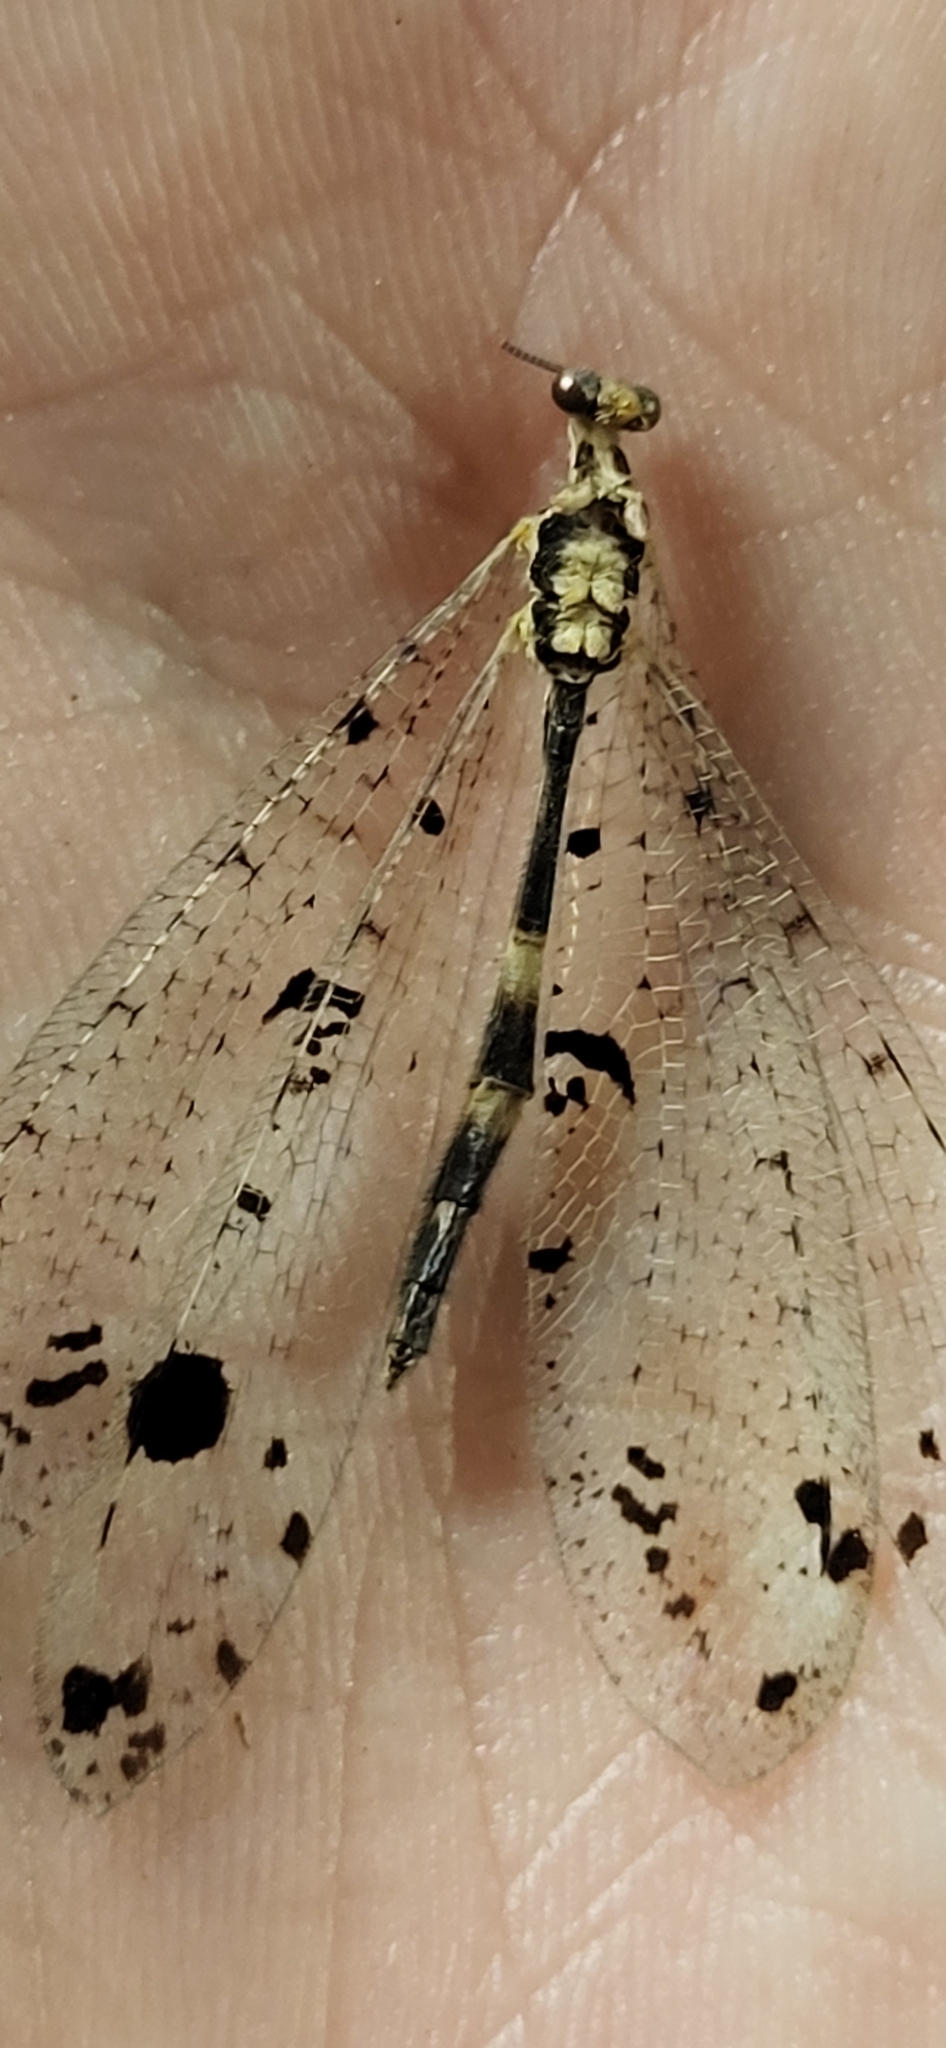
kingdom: Animalia
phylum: Arthropoda
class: Insecta
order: Neuroptera
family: Myrmeleontidae
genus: Dendroleon
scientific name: Dendroleon obsoletus
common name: Eastern spotted-winged antlion
